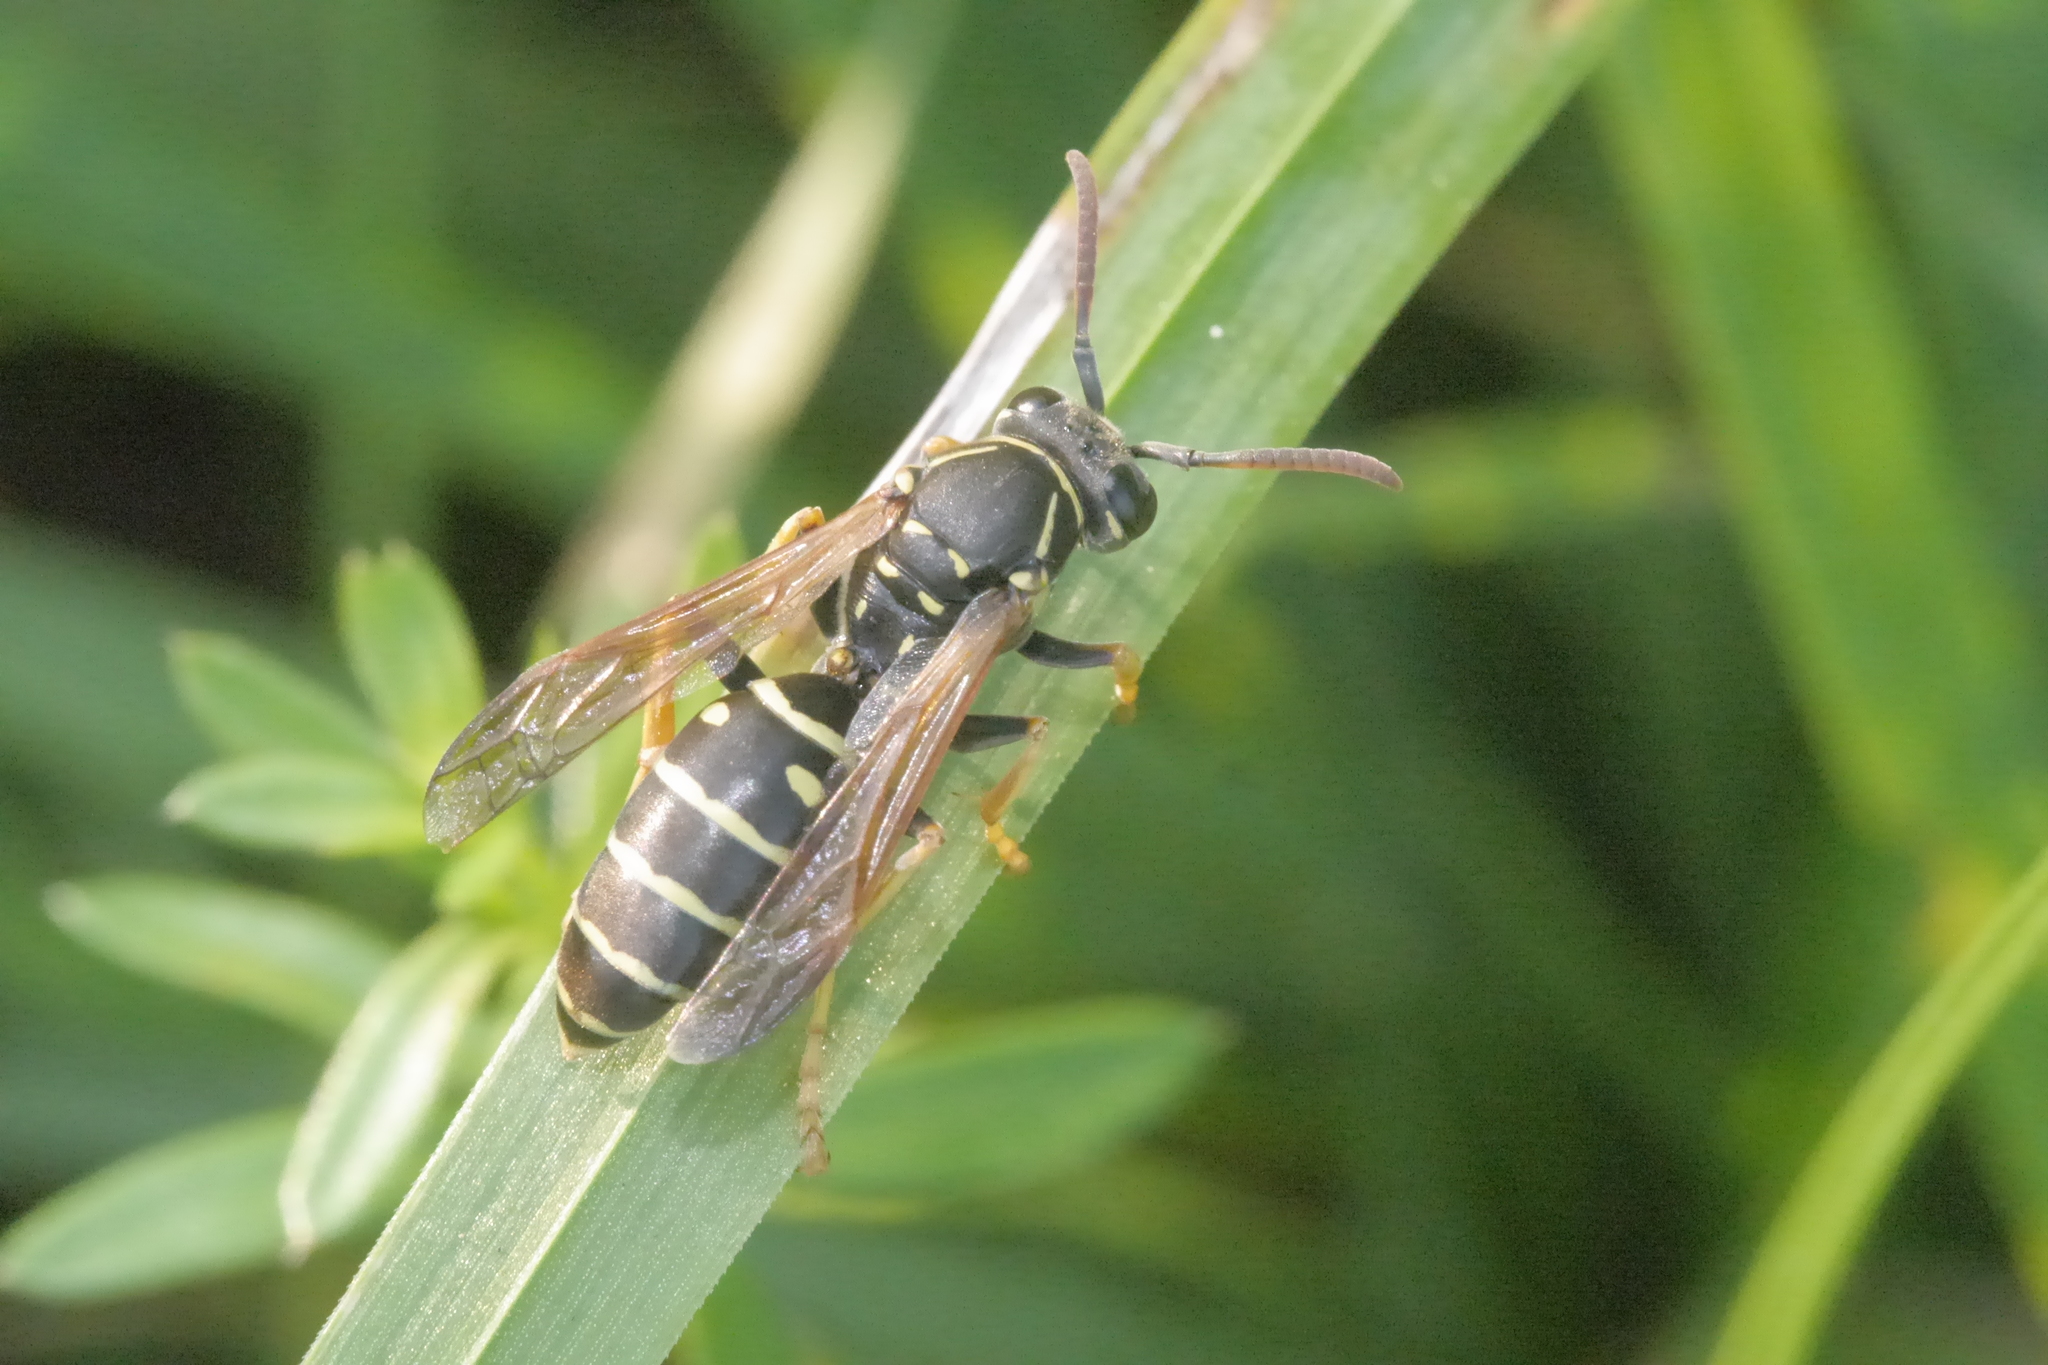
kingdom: Animalia
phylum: Arthropoda
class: Insecta
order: Hymenoptera
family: Eumenidae
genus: Polistes
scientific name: Polistes nimpha
